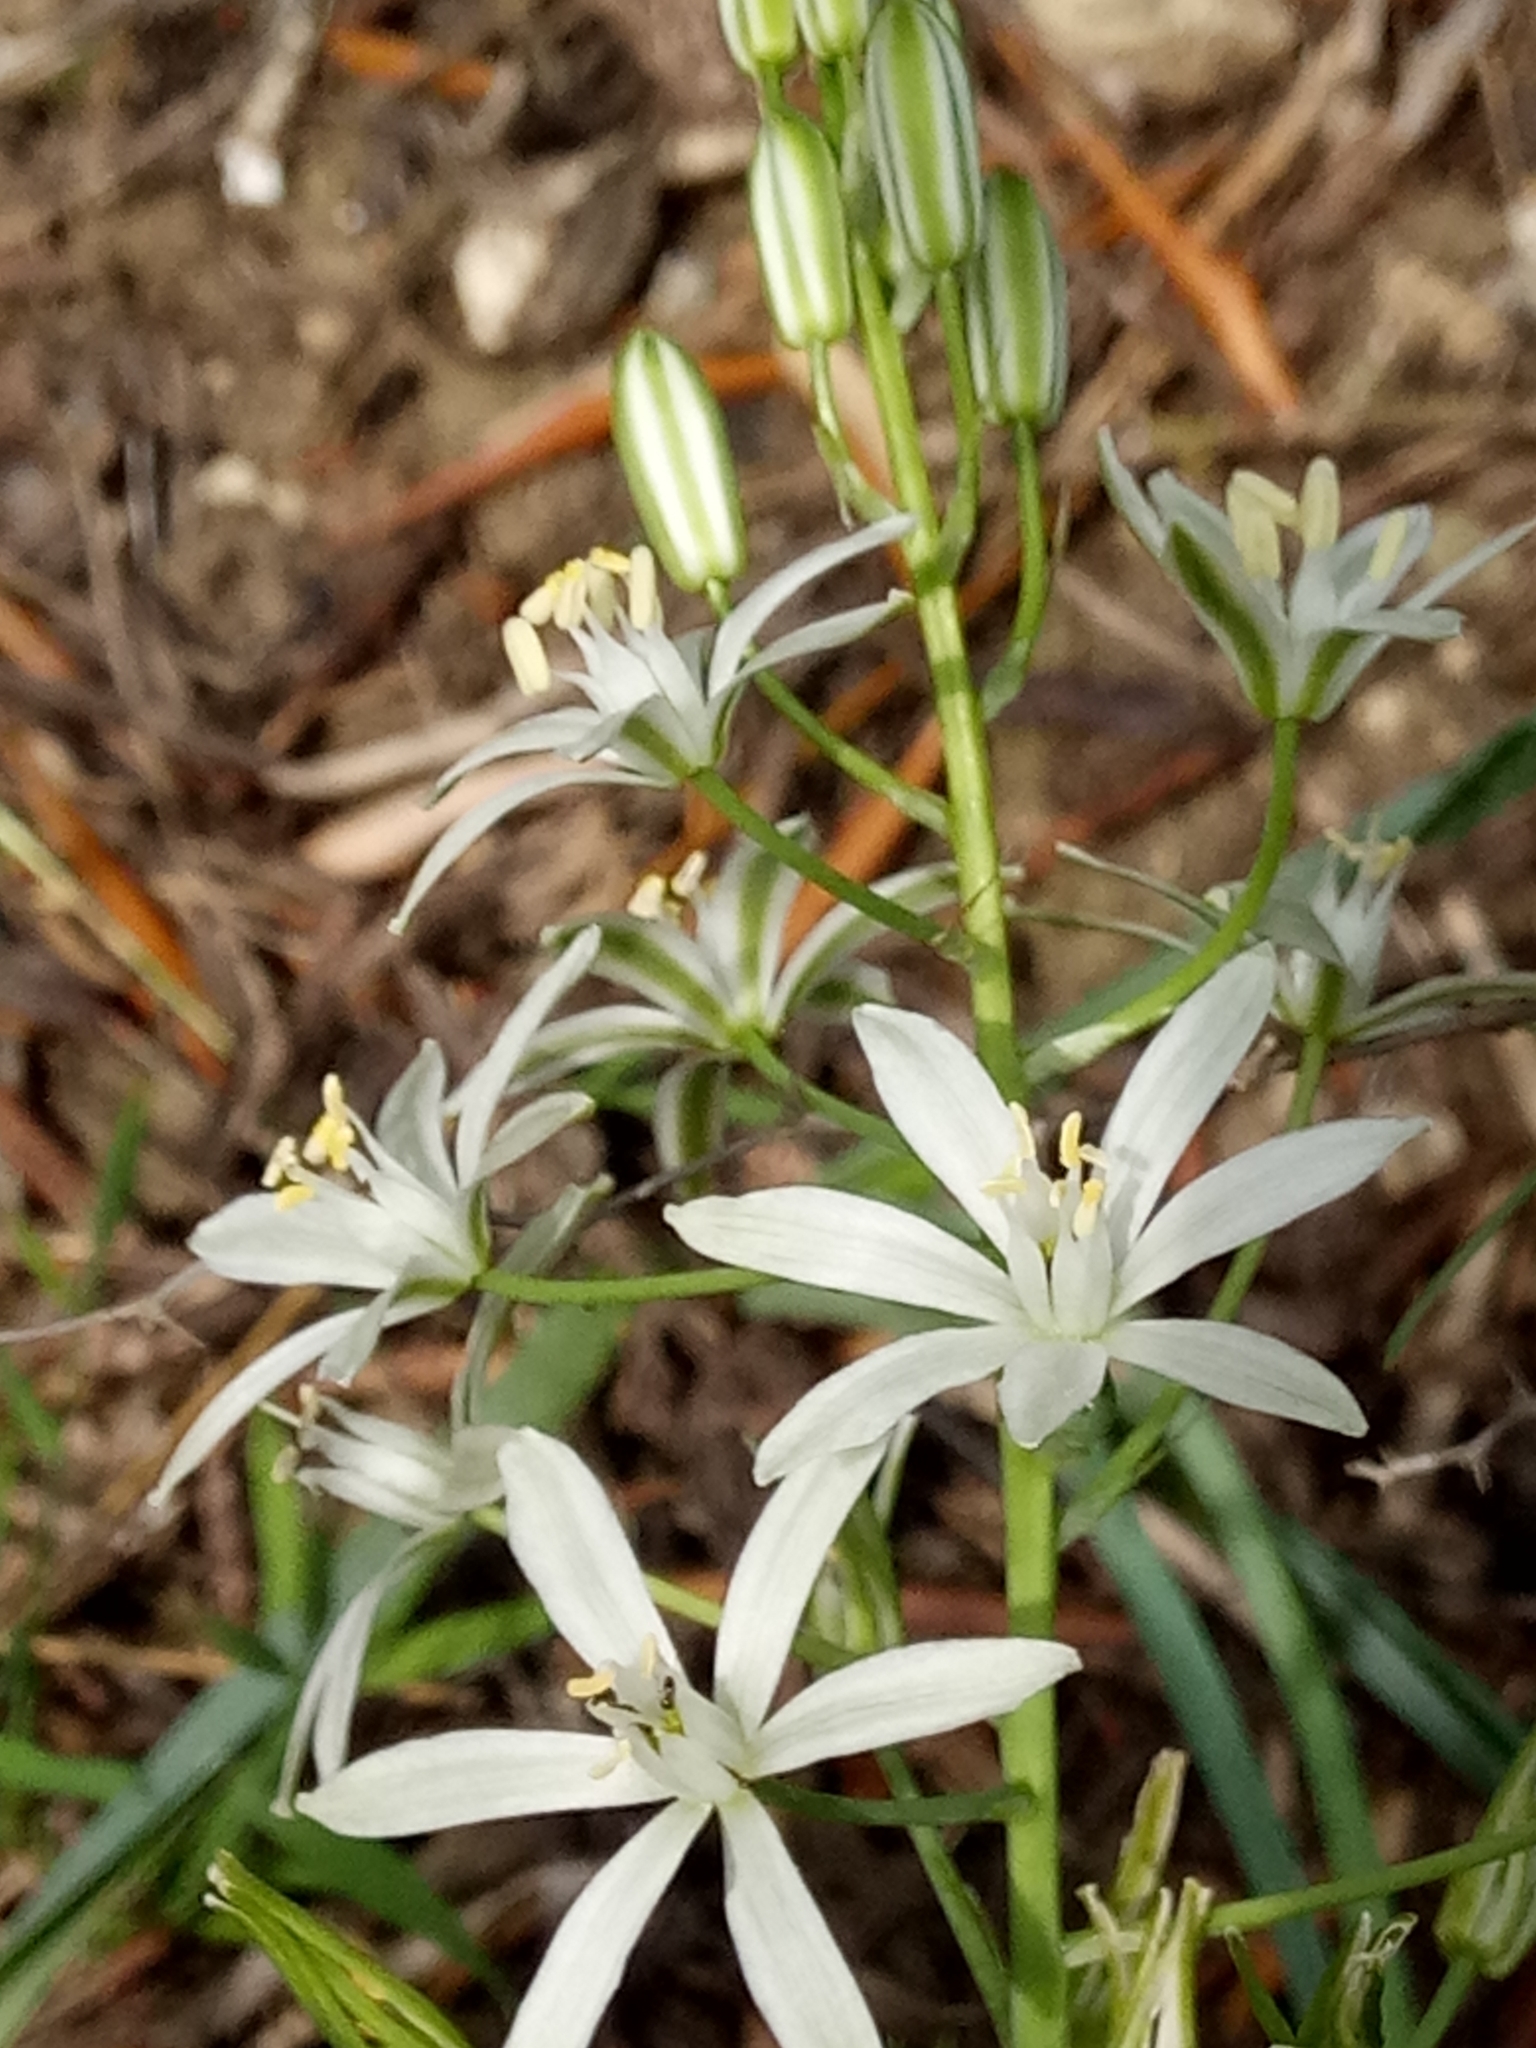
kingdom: Plantae
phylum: Tracheophyta
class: Liliopsida
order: Asparagales
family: Asparagaceae
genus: Ornithogalum
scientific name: Ornithogalum narbonense
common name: Bath-asparagus
